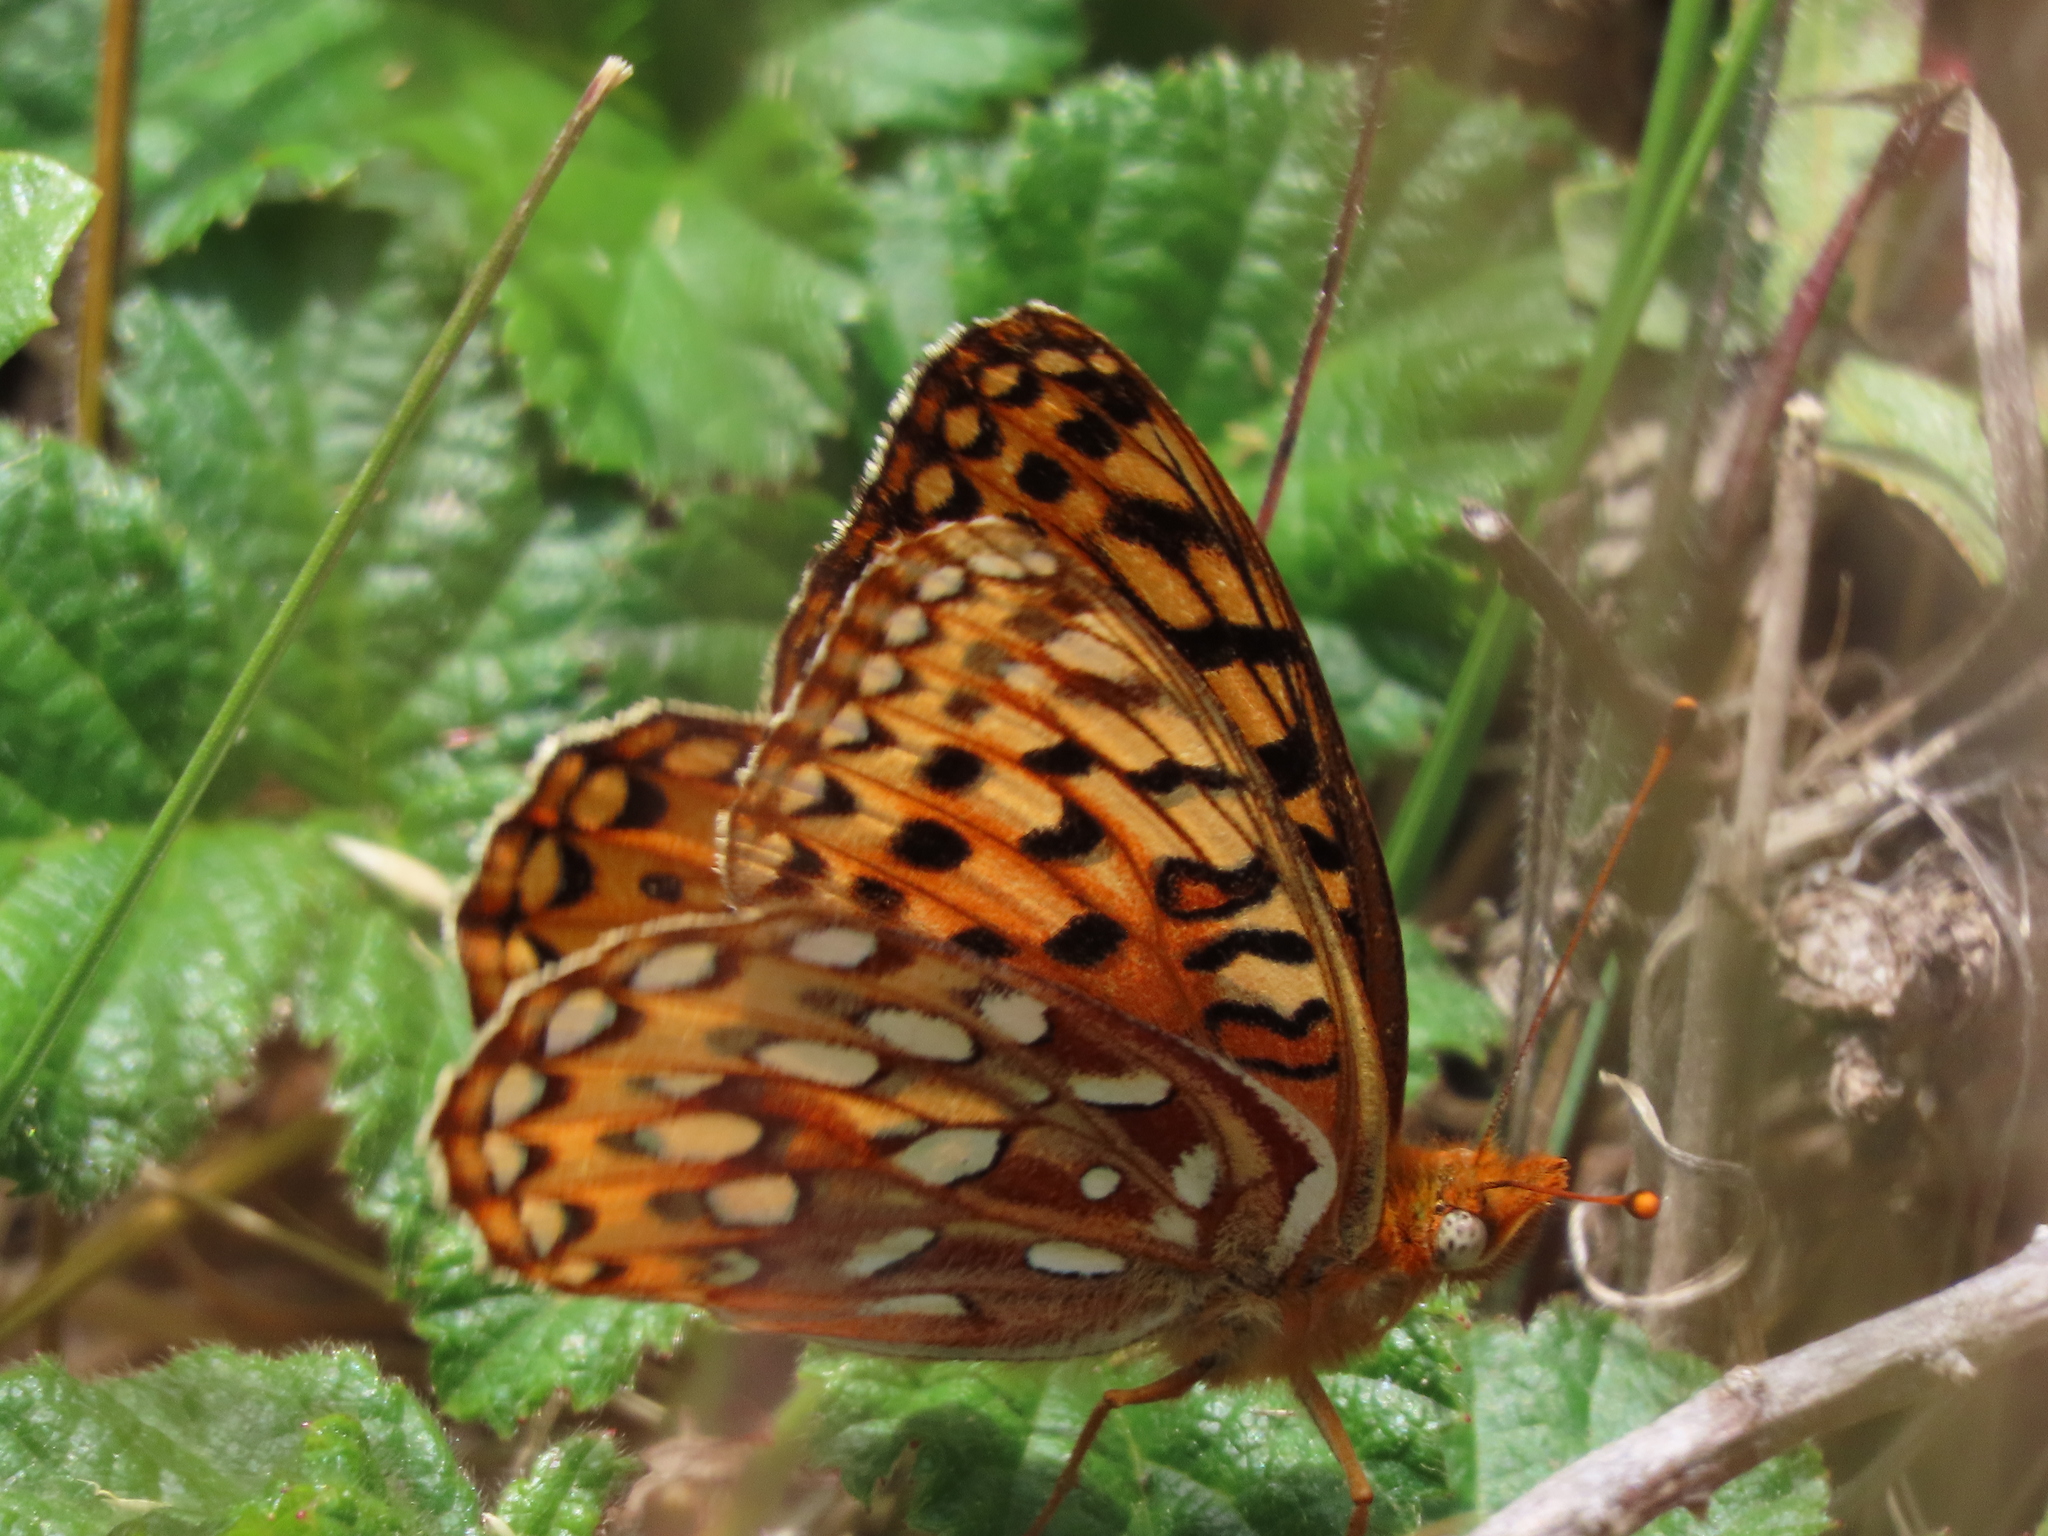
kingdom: Animalia
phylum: Arthropoda
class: Insecta
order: Lepidoptera
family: Nymphalidae
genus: Speyeria
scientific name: Speyeria zerene
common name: Zerene fritillary
